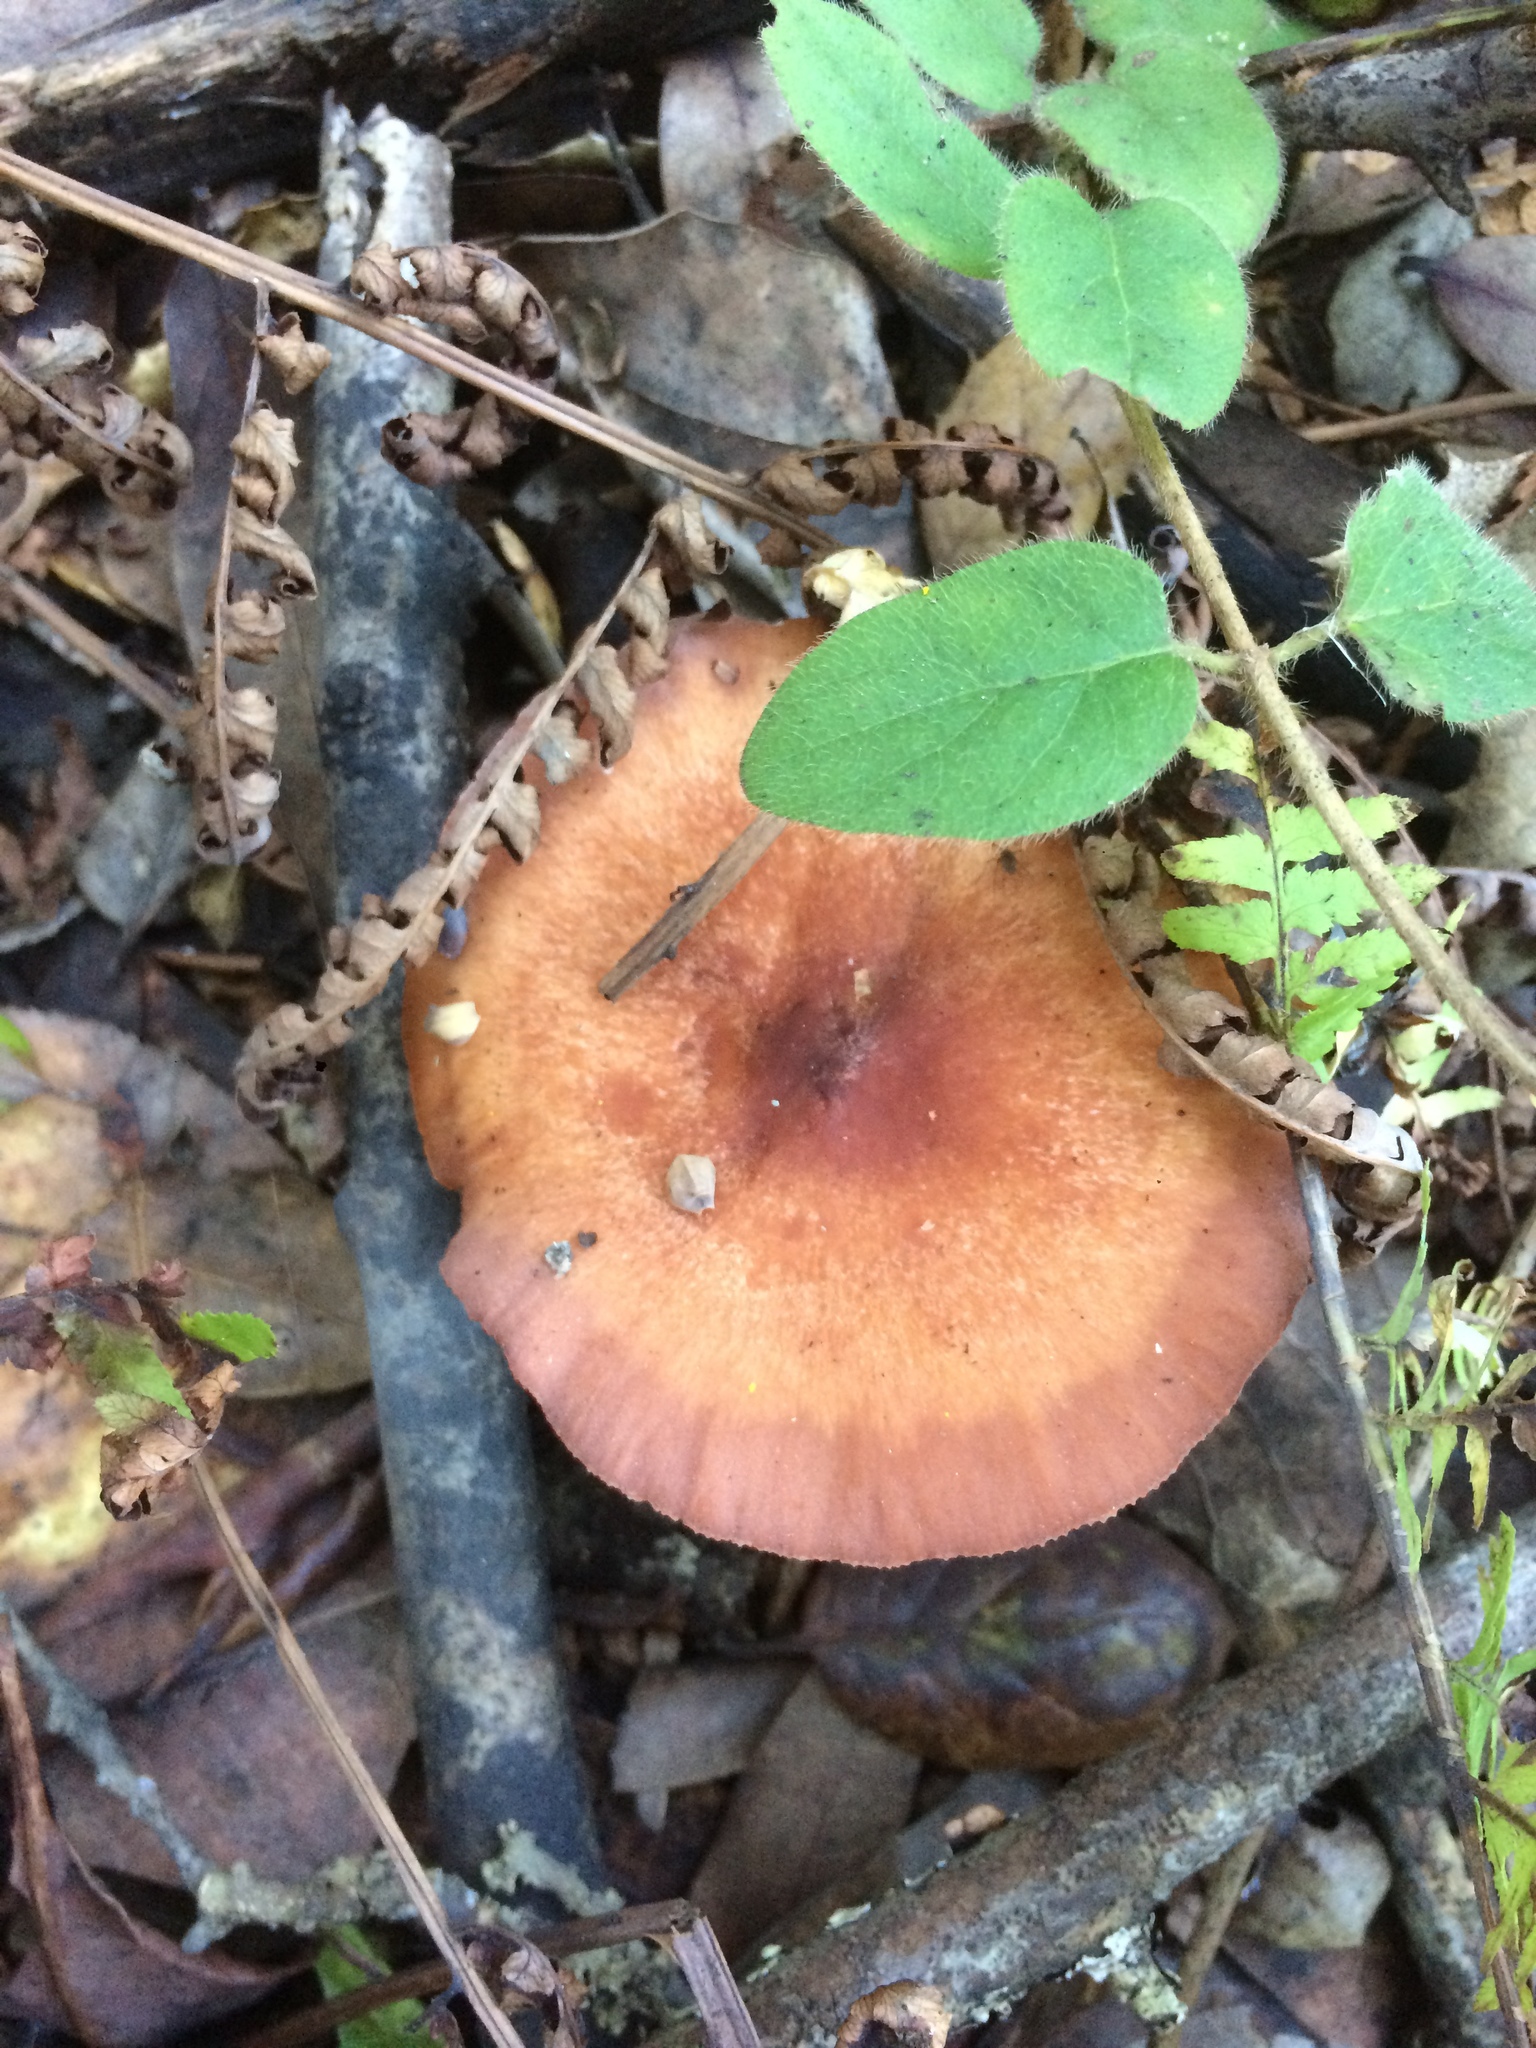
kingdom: Fungi
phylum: Basidiomycota
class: Agaricomycetes
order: Russulales
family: Russulaceae
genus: Lactarius
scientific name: Lactarius xanthogalactus
